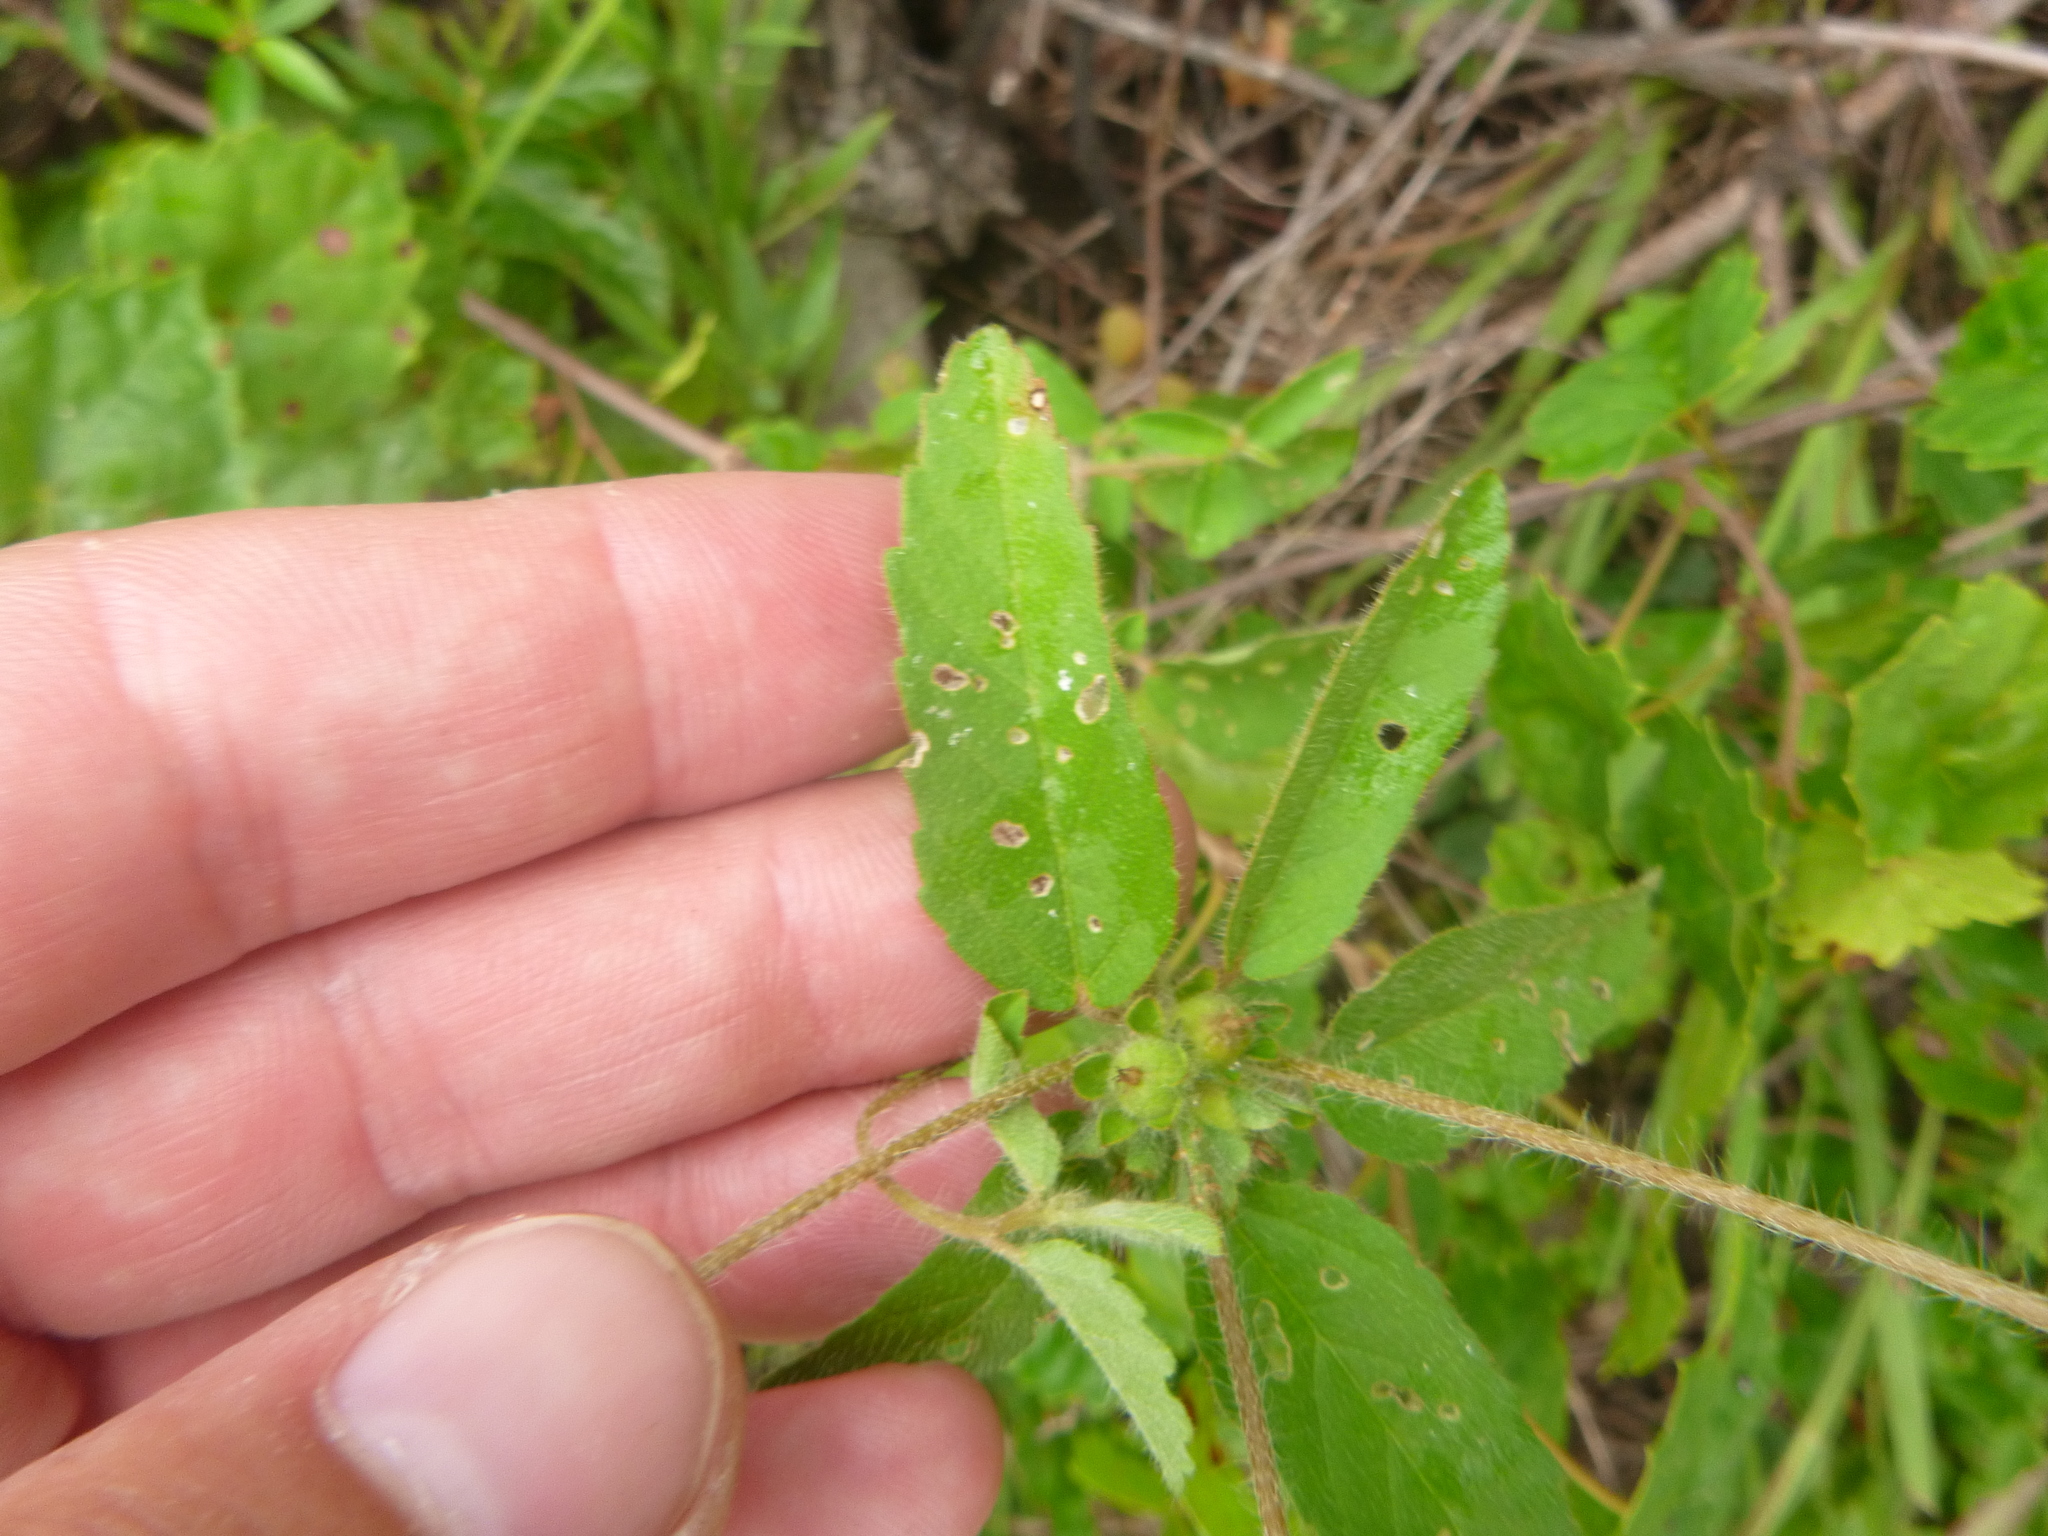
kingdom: Plantae
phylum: Tracheophyta
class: Magnoliopsida
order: Malpighiales
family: Euphorbiaceae
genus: Croton
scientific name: Croton glandulosus
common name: Tropic croton
